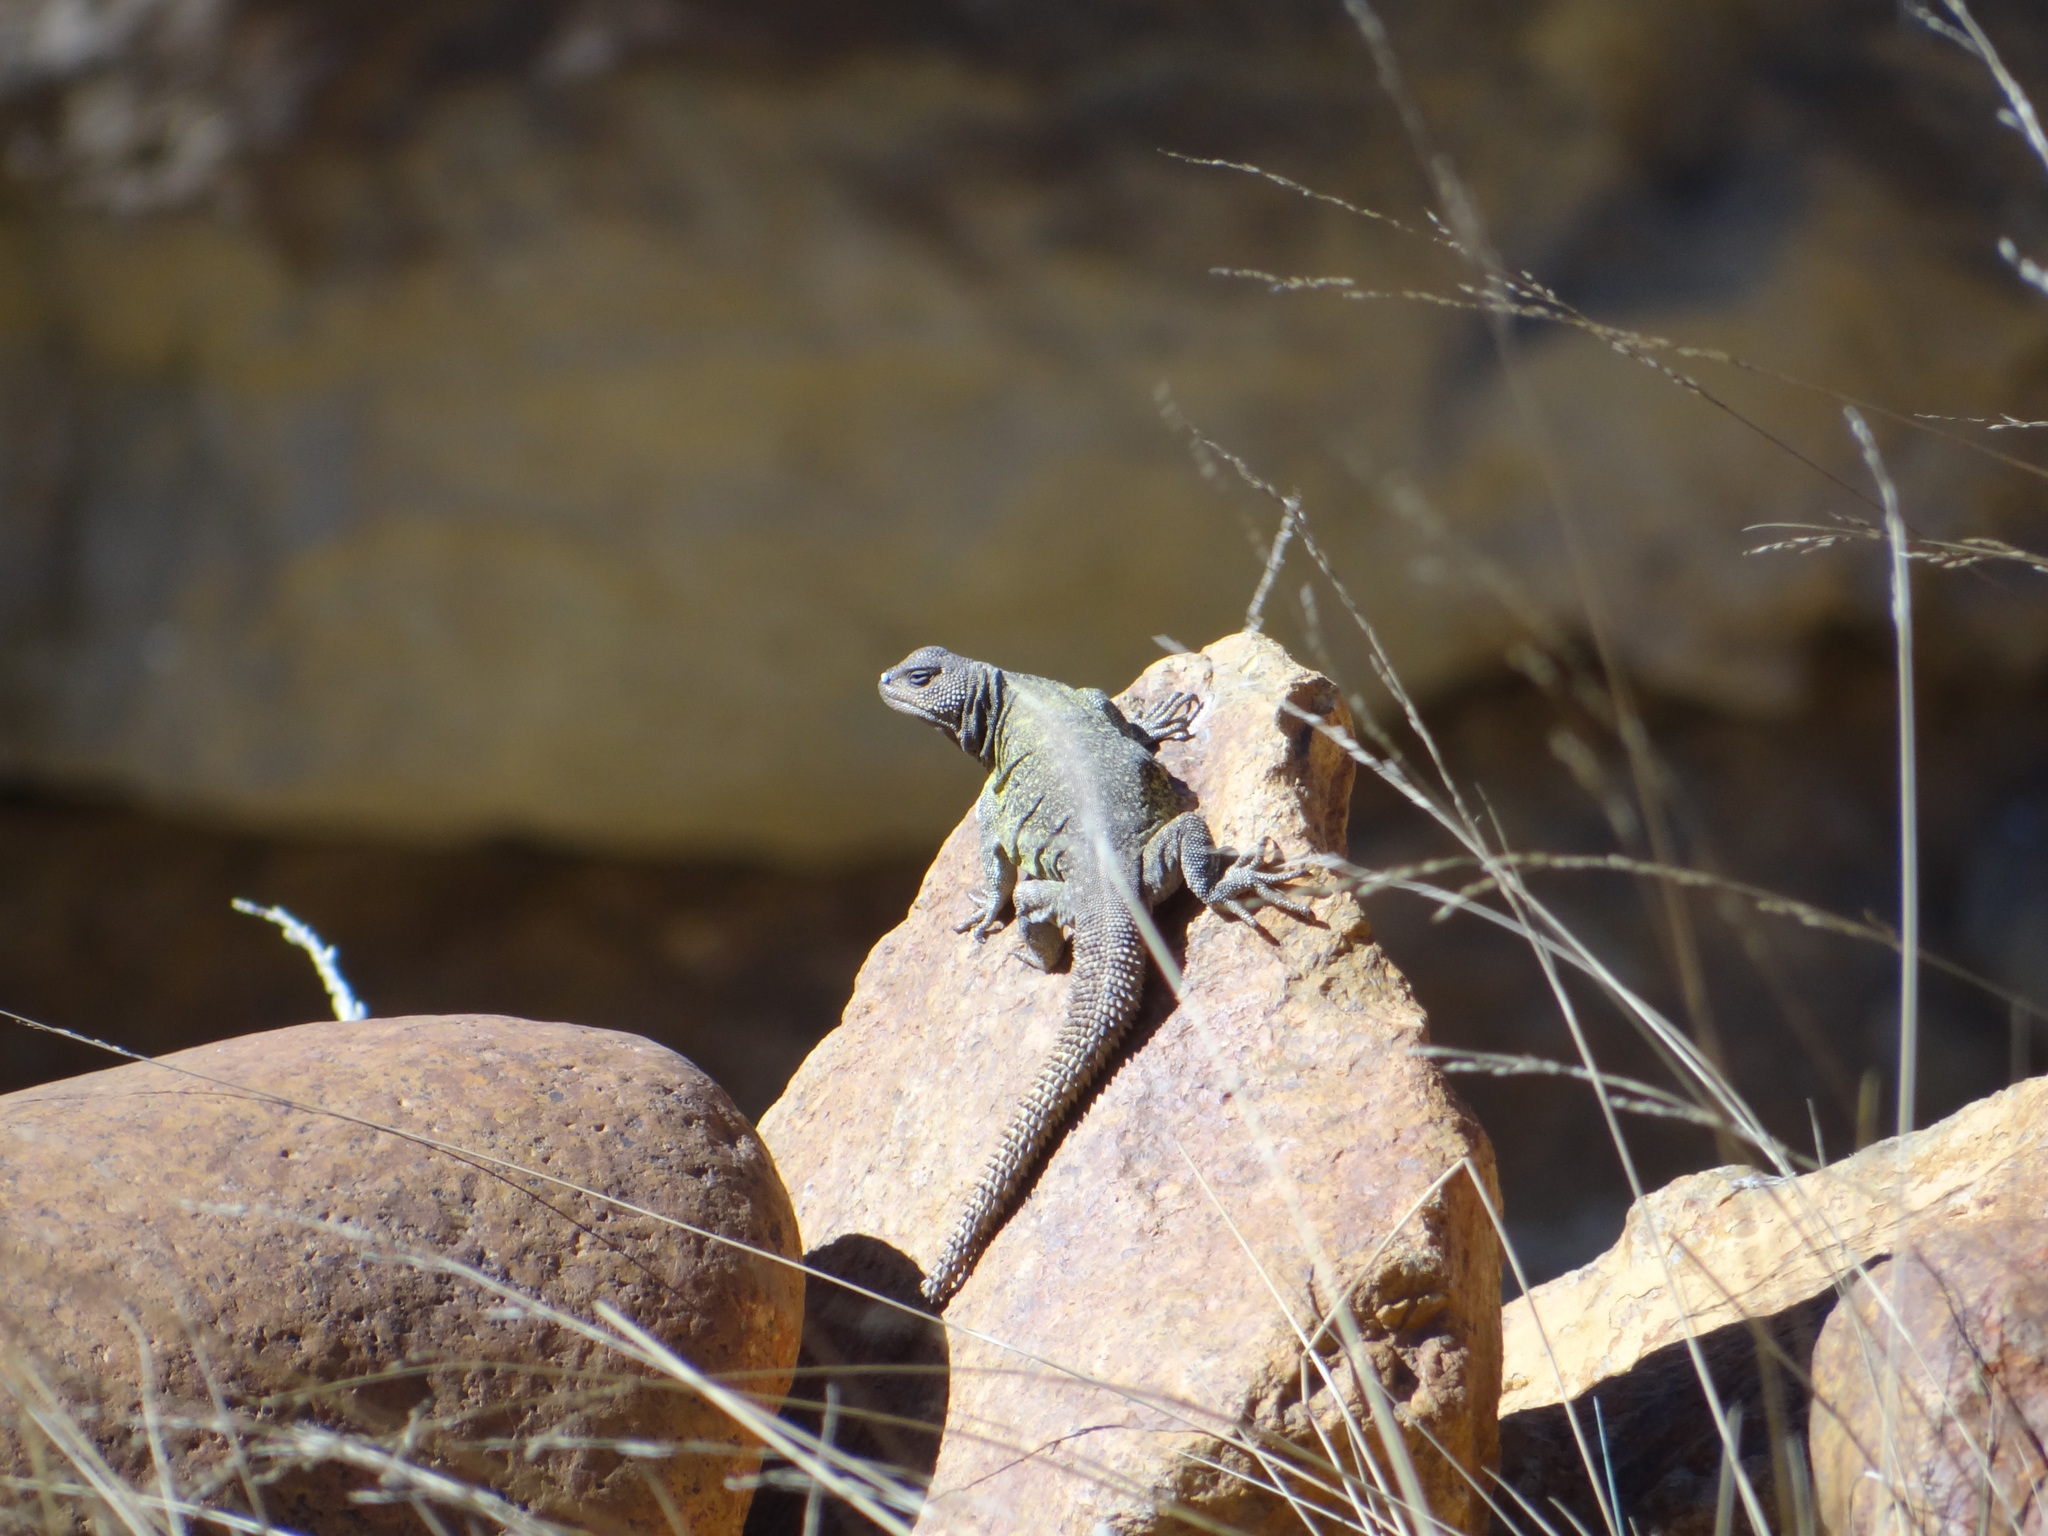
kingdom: Animalia
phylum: Chordata
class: Squamata
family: Liolaemidae
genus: Phymaturus
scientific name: Phymaturus mallimaccii
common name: Thorntail mountain lizard
